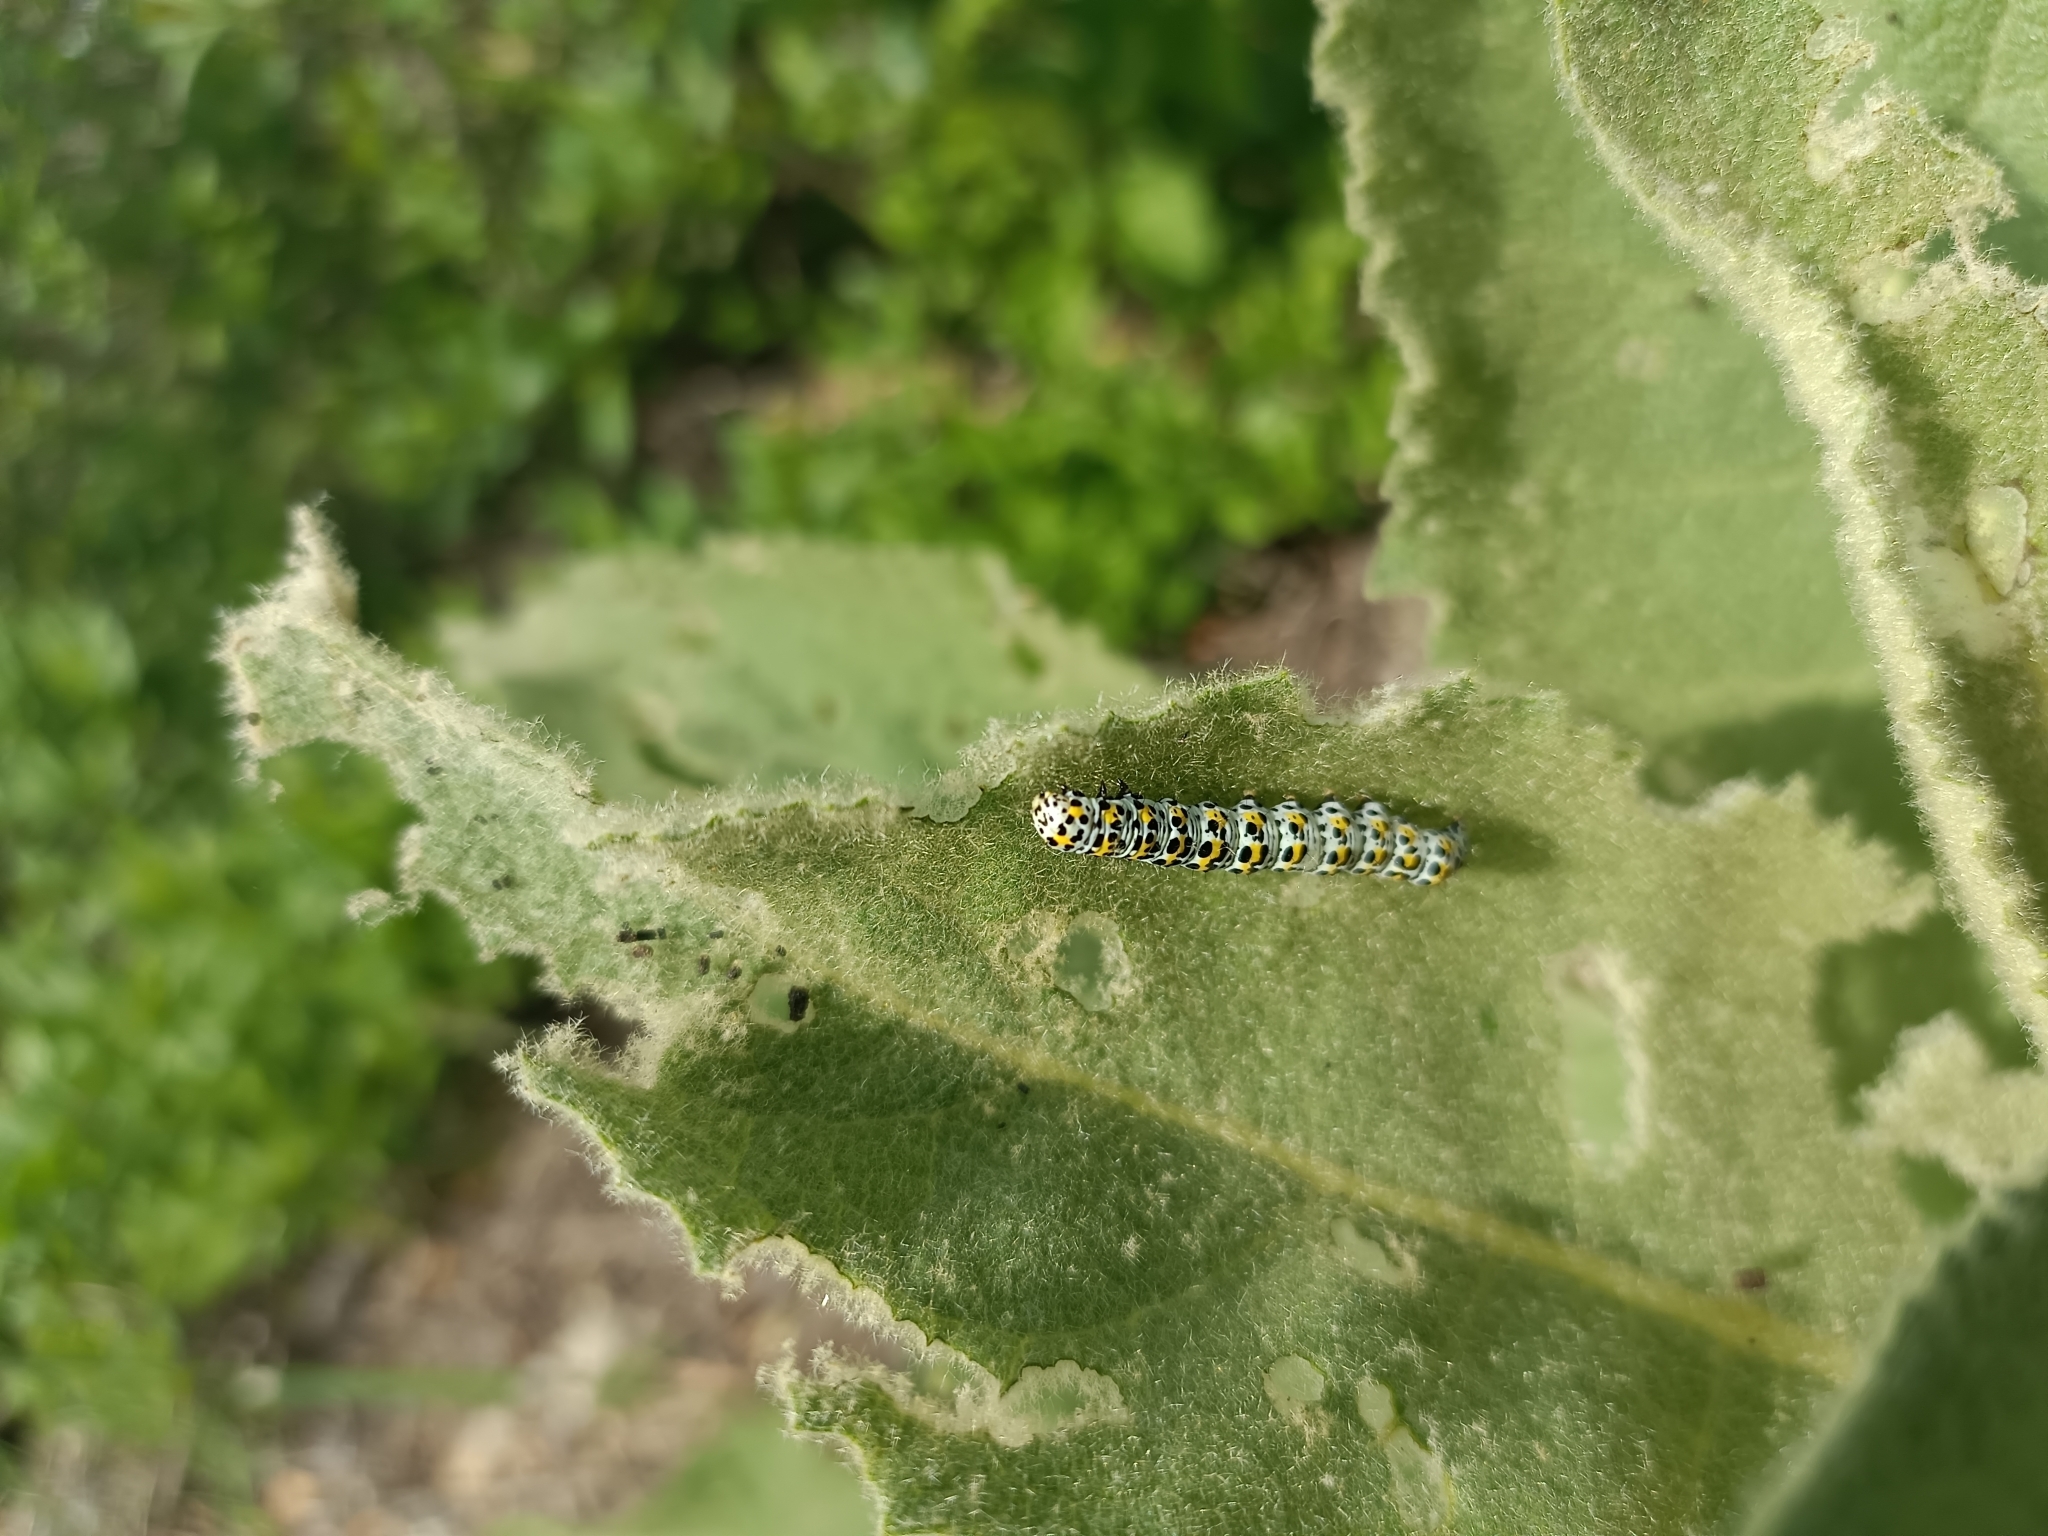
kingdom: Animalia
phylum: Arthropoda
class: Insecta
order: Lepidoptera
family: Noctuidae
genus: Cucullia
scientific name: Cucullia verbasci
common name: Mullein
